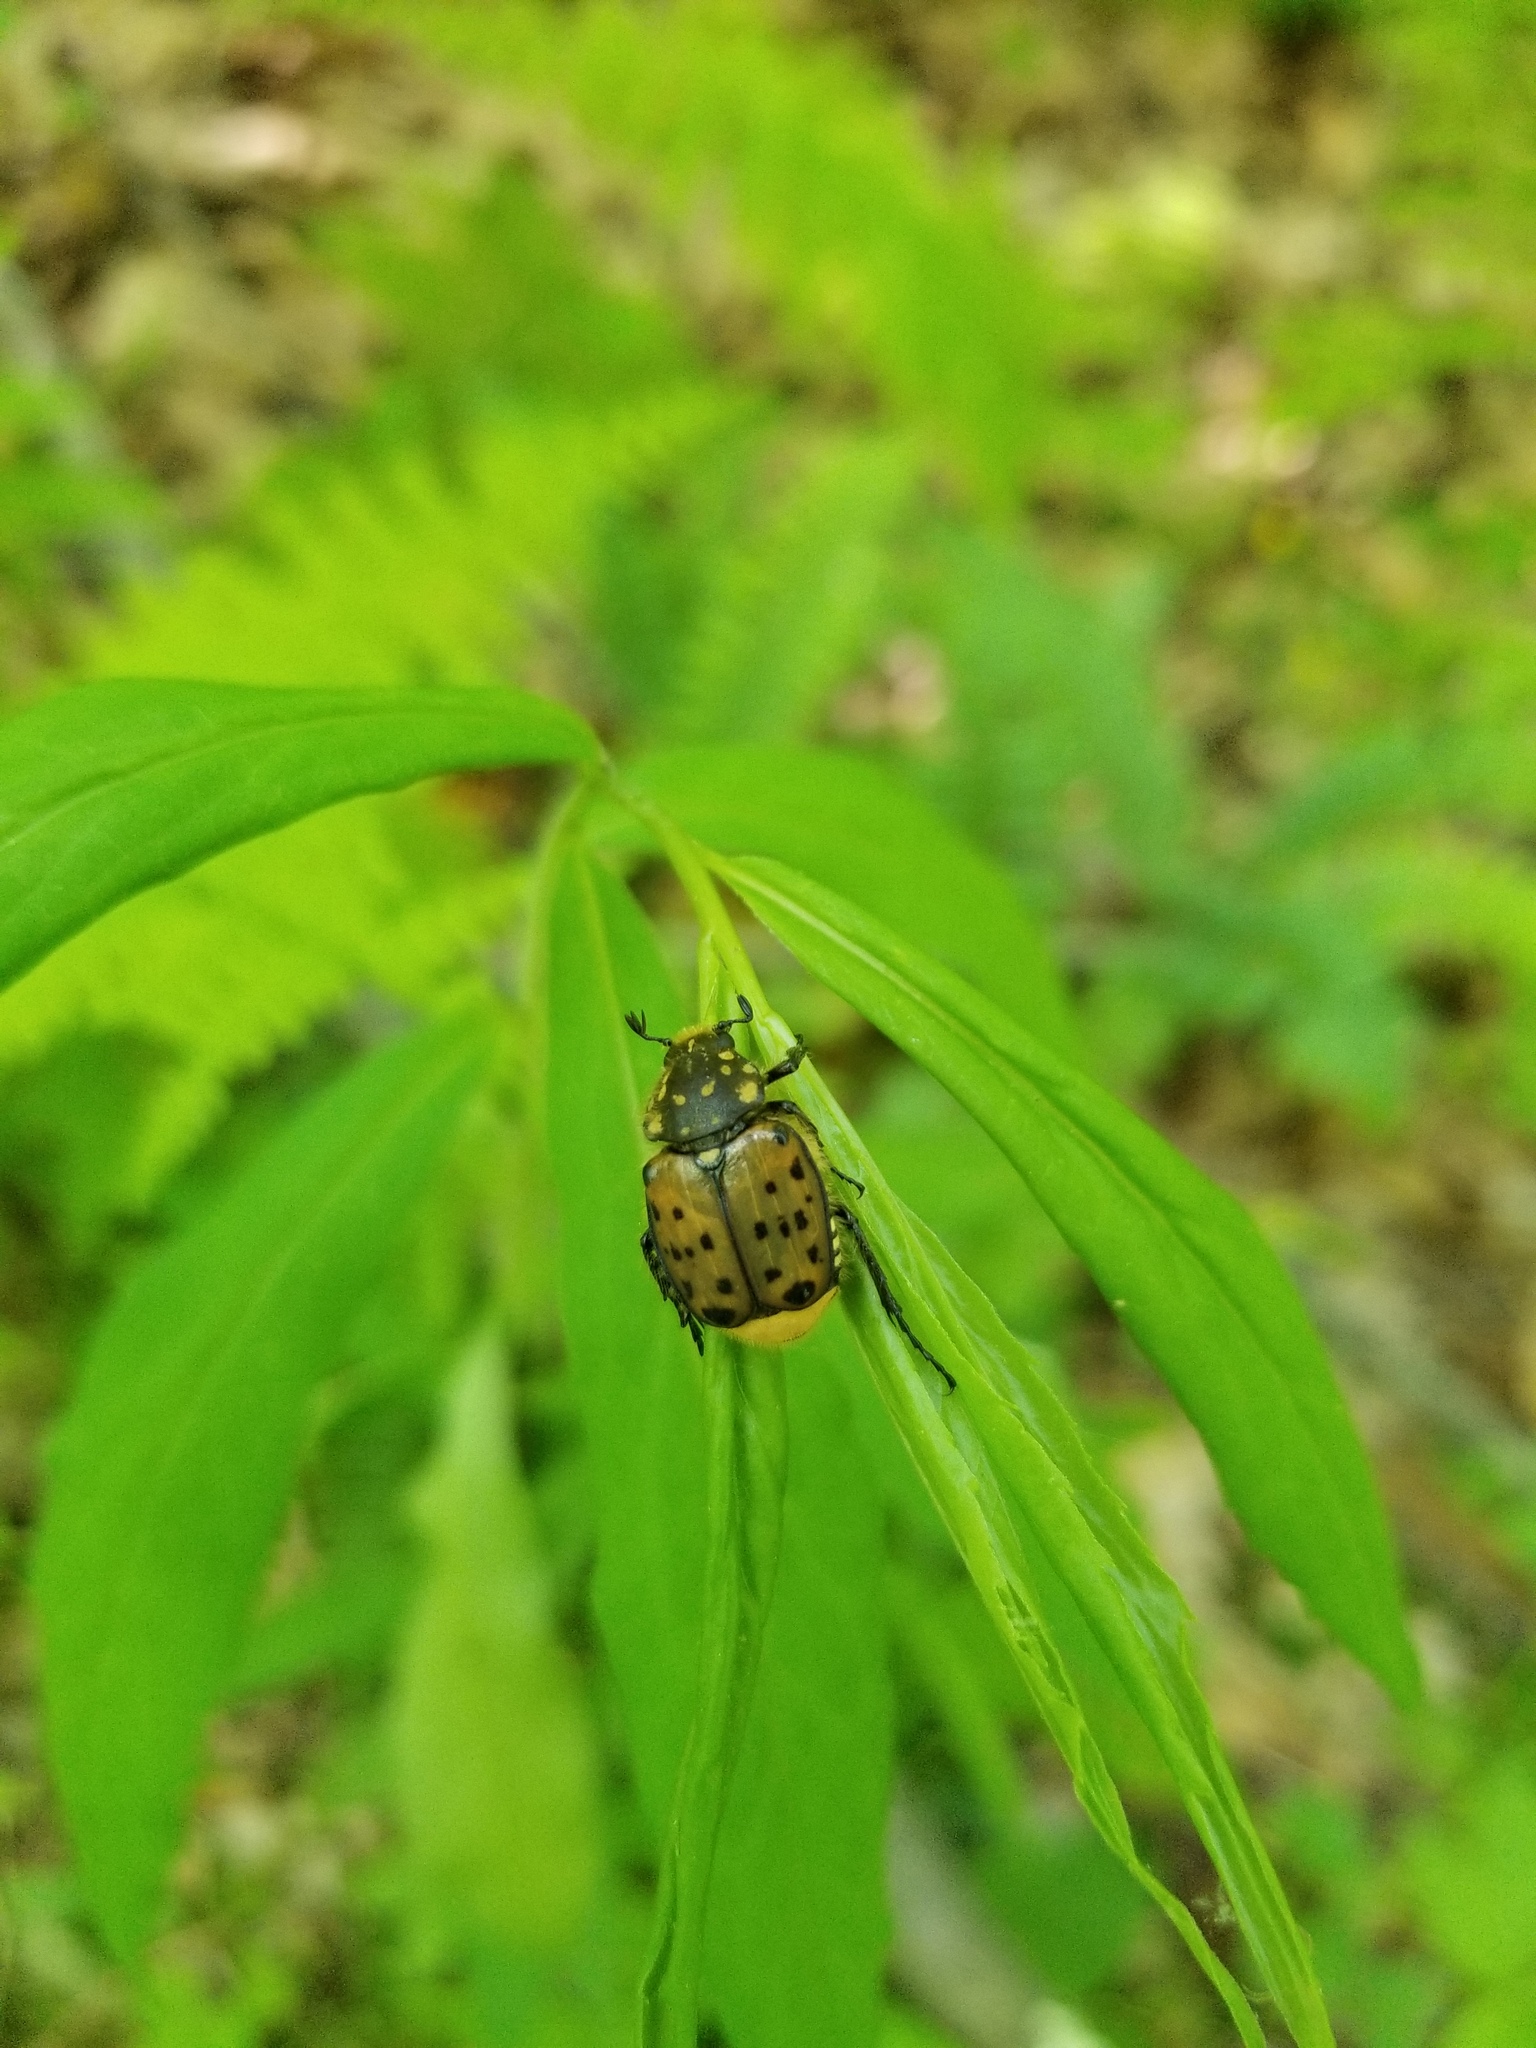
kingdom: Animalia
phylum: Arthropoda
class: Insecta
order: Coleoptera
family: Scarabaeidae
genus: Gnorimella
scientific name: Gnorimella maculosa
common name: Maculate flower beetle
